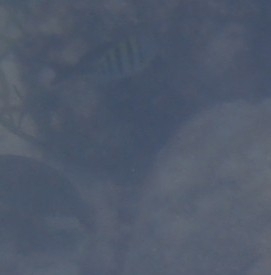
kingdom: Animalia
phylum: Chordata
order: Perciformes
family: Pomacentridae
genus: Abudefduf
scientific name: Abudefduf saxatilis
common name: Sergeant major
